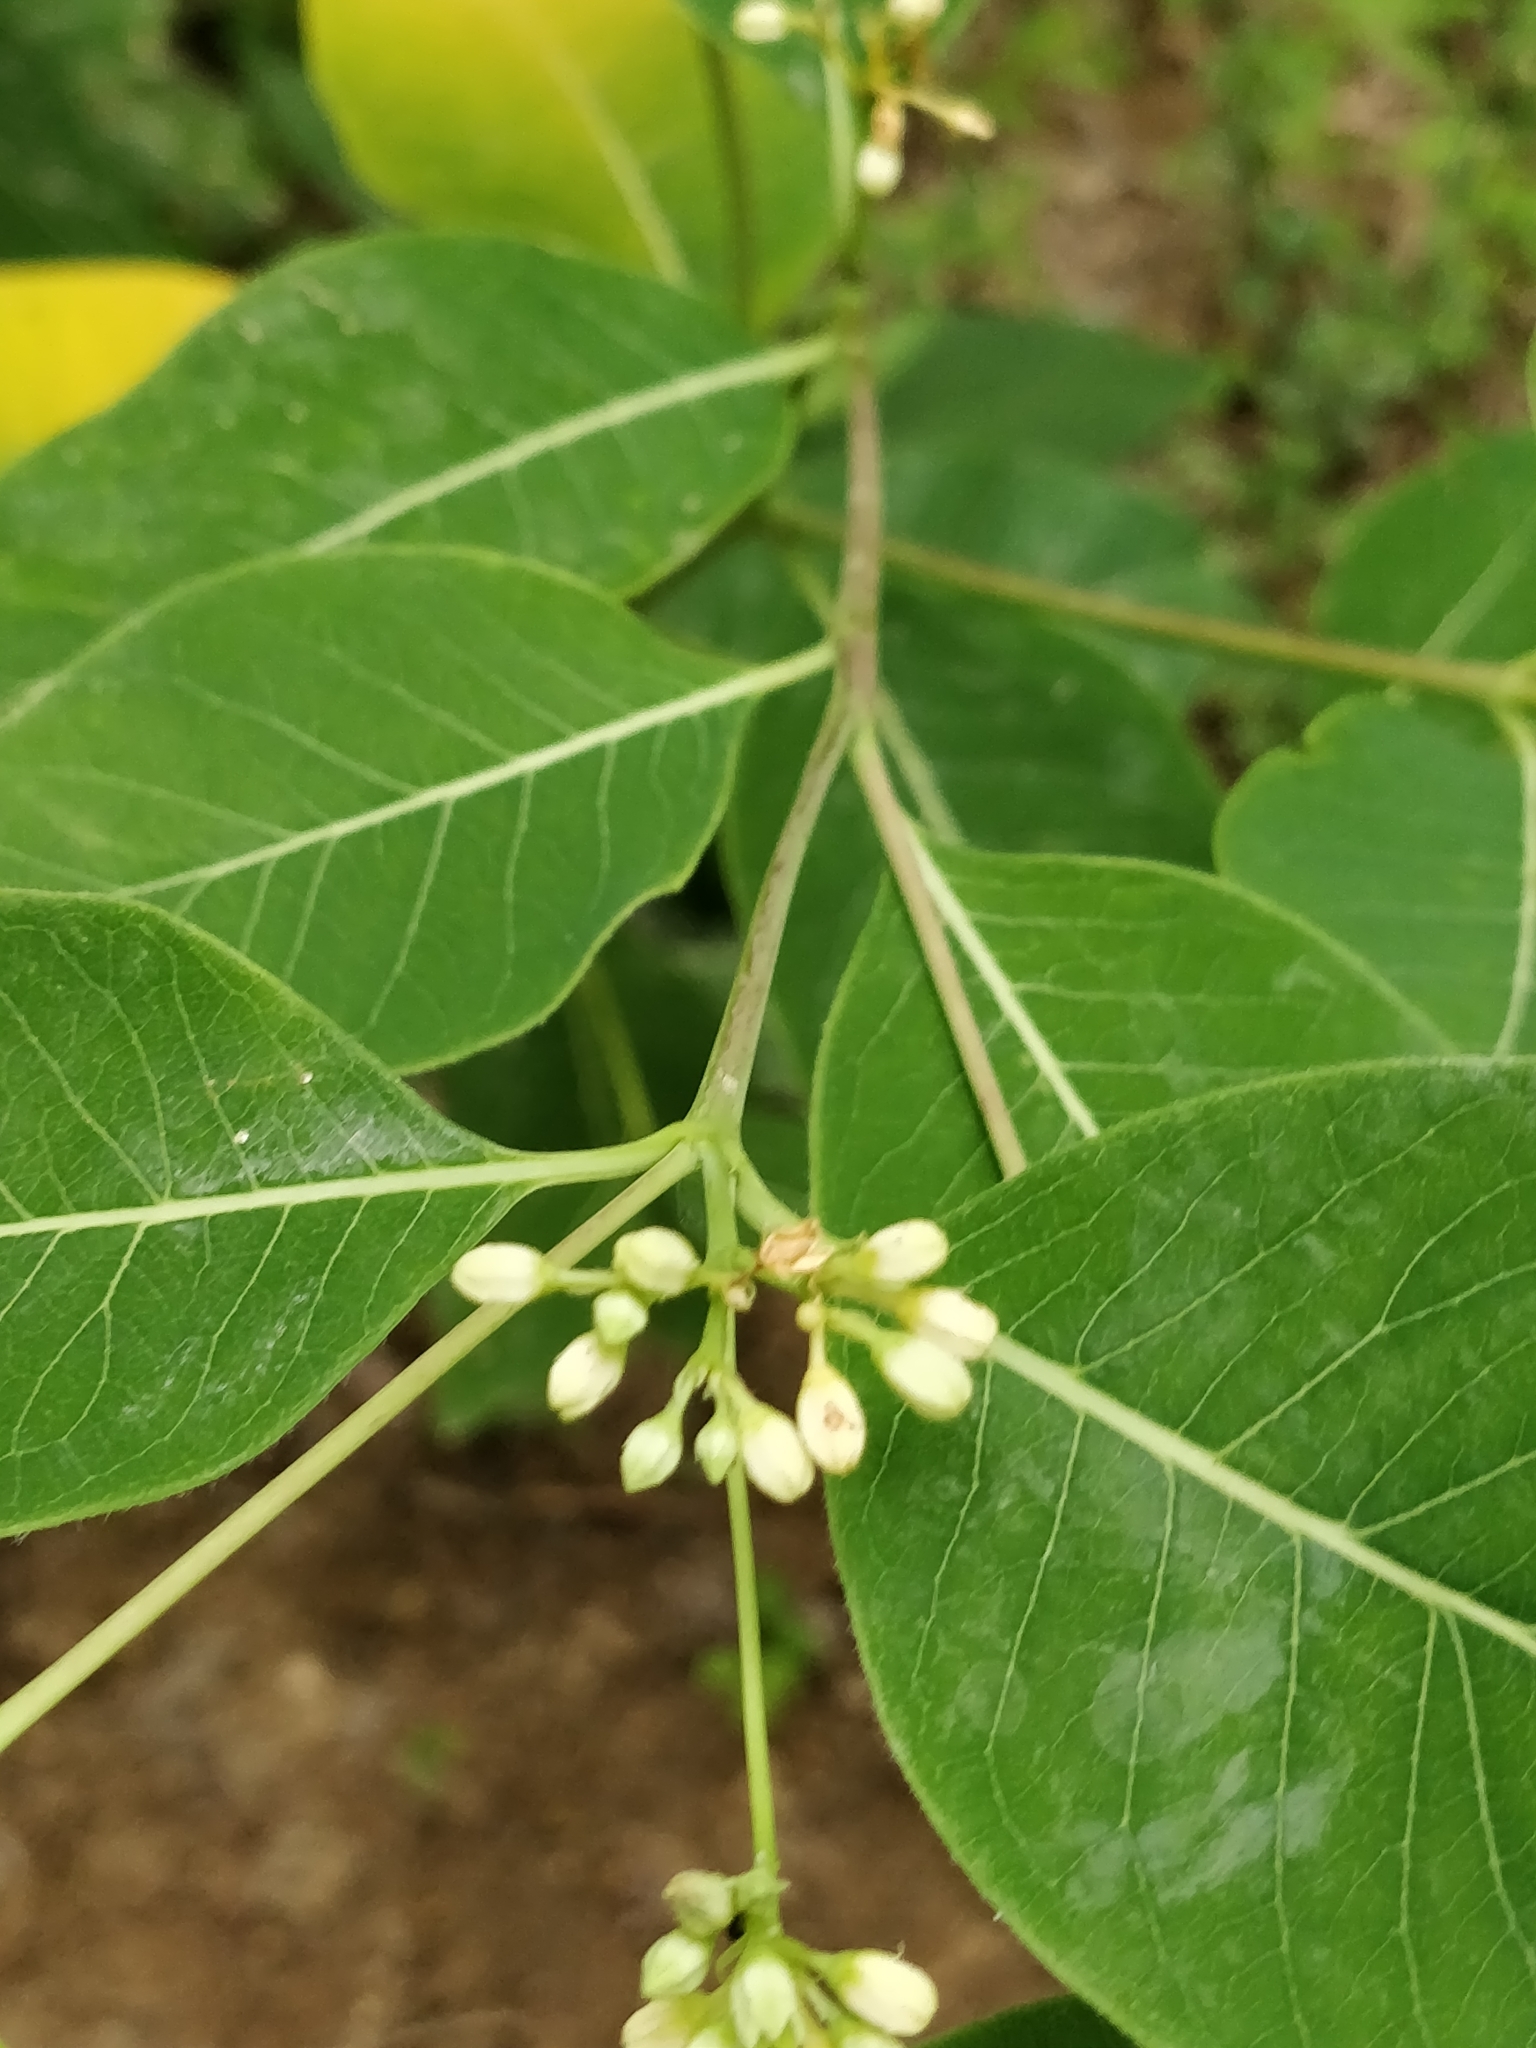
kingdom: Plantae
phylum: Tracheophyta
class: Magnoliopsida
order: Gentianales
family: Apocynaceae
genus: Apocynum
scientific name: Apocynum cannabinum
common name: Hemp dogbane
